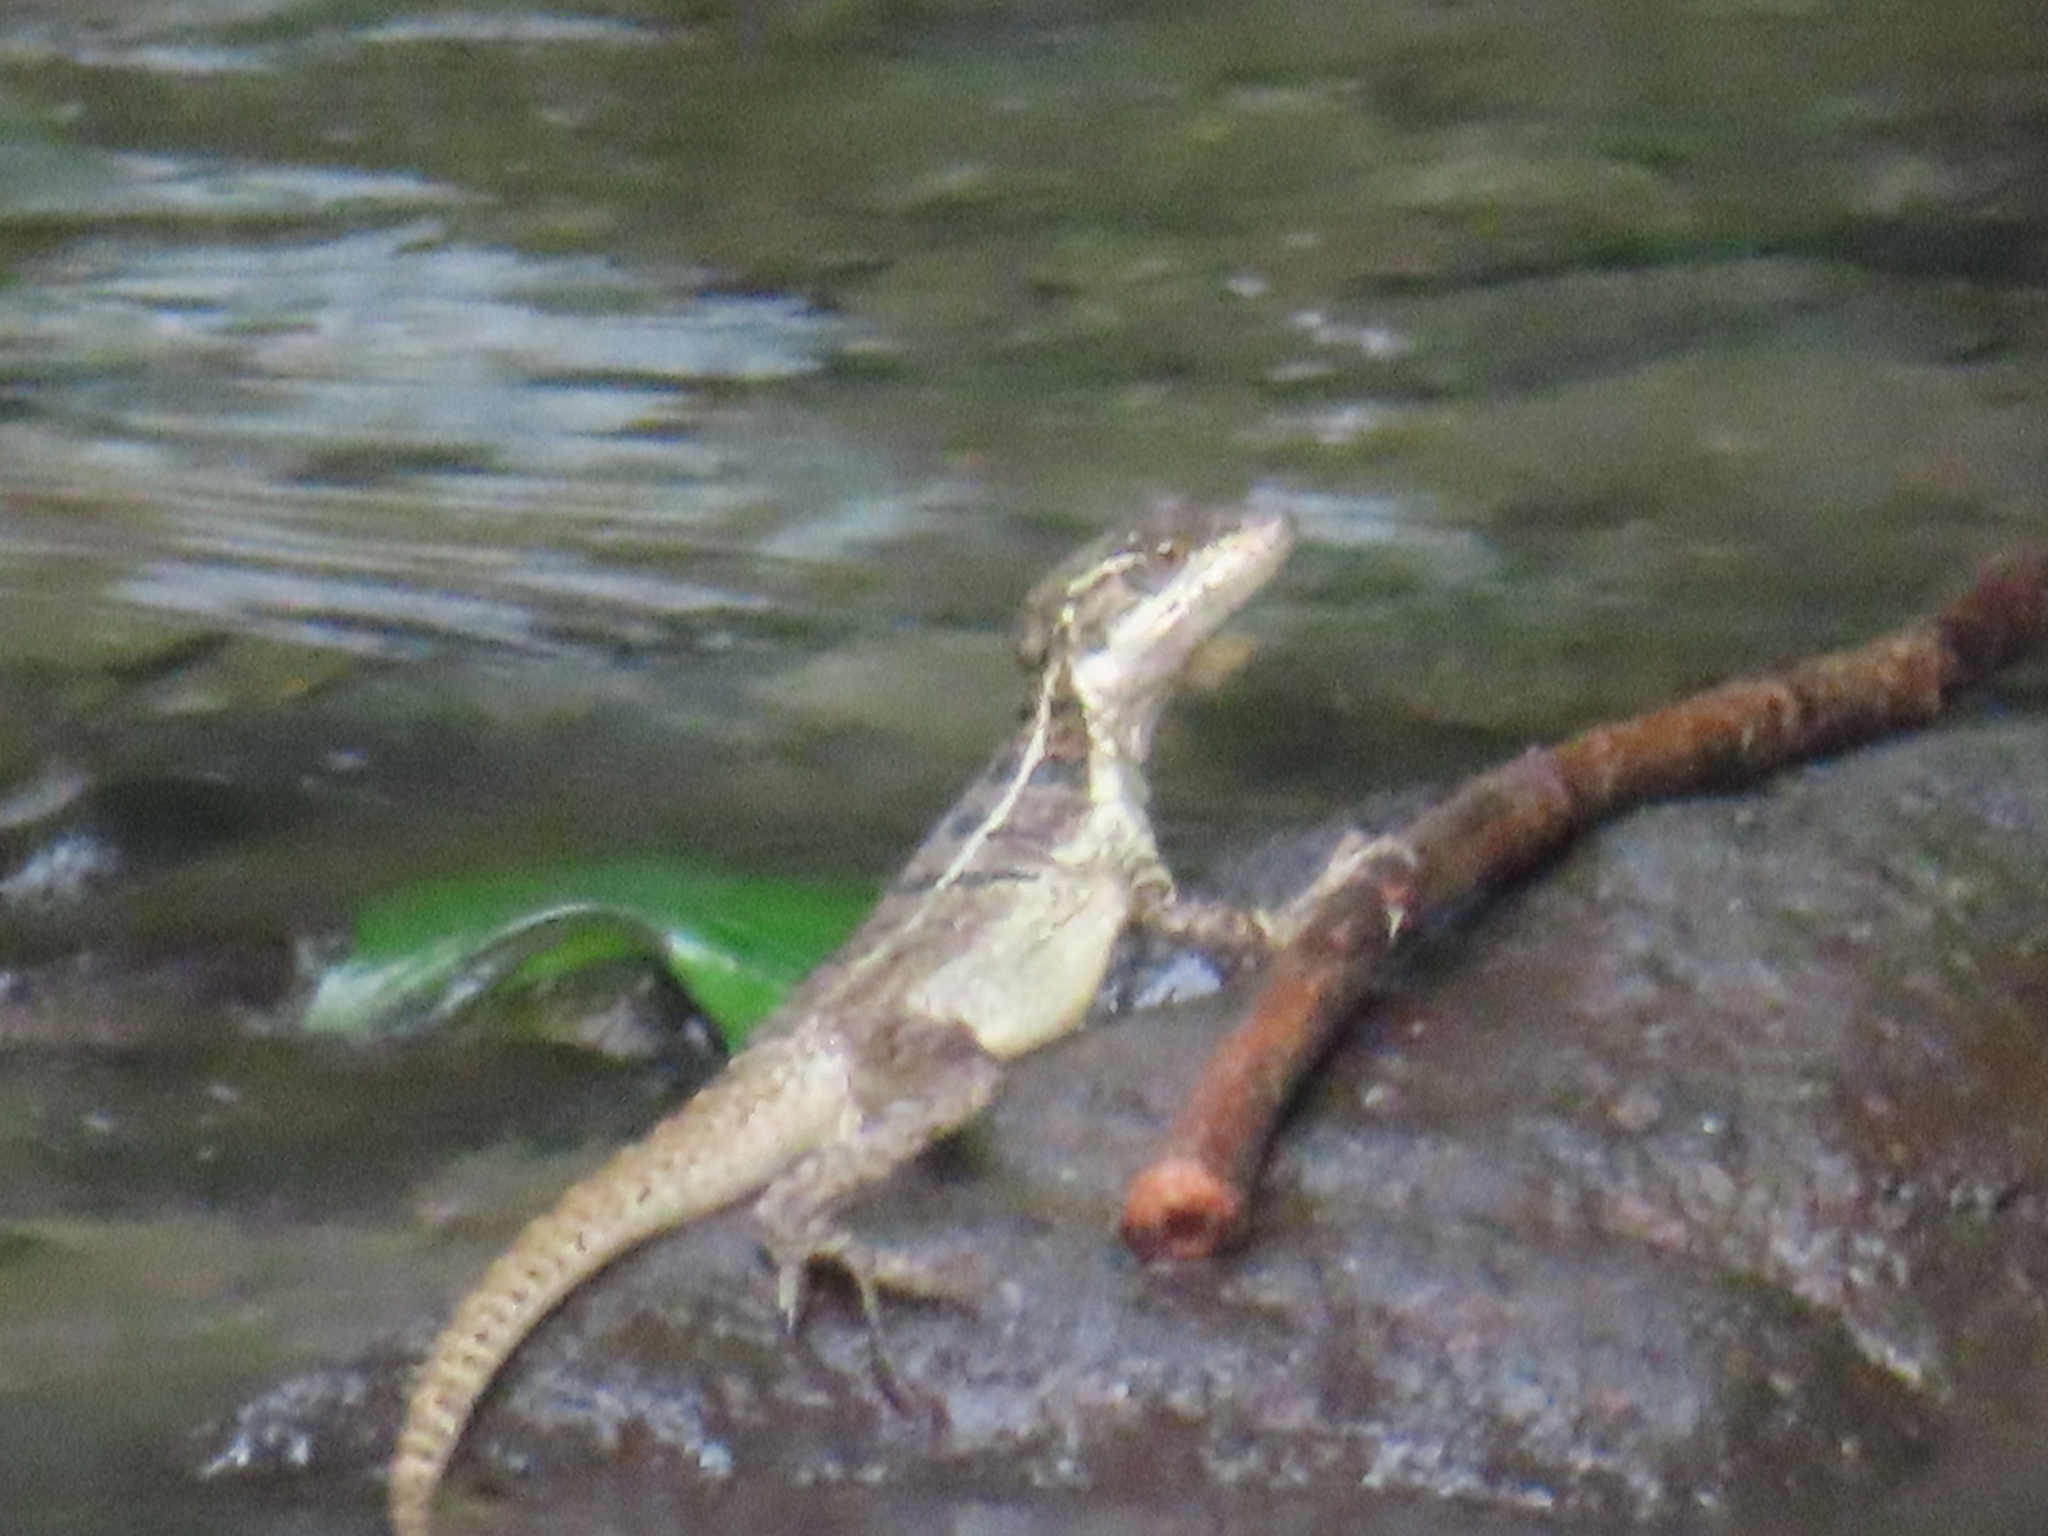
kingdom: Animalia
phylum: Chordata
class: Squamata
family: Corytophanidae
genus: Basiliscus
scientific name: Basiliscus basiliscus
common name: Common basilisk
